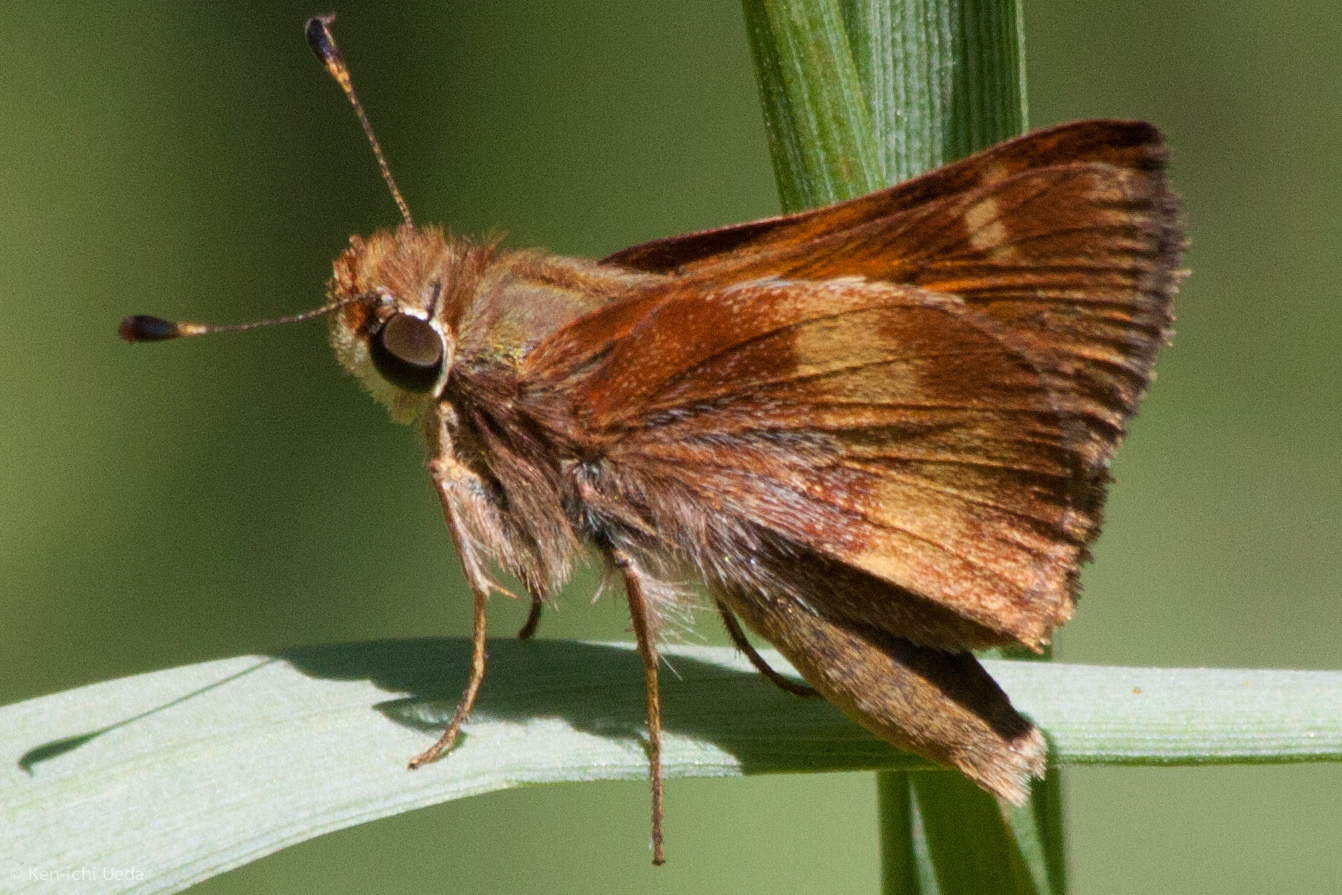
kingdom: Animalia
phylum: Arthropoda
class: Insecta
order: Lepidoptera
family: Hesperiidae
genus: Lon
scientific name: Lon melane
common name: Umber skipper
